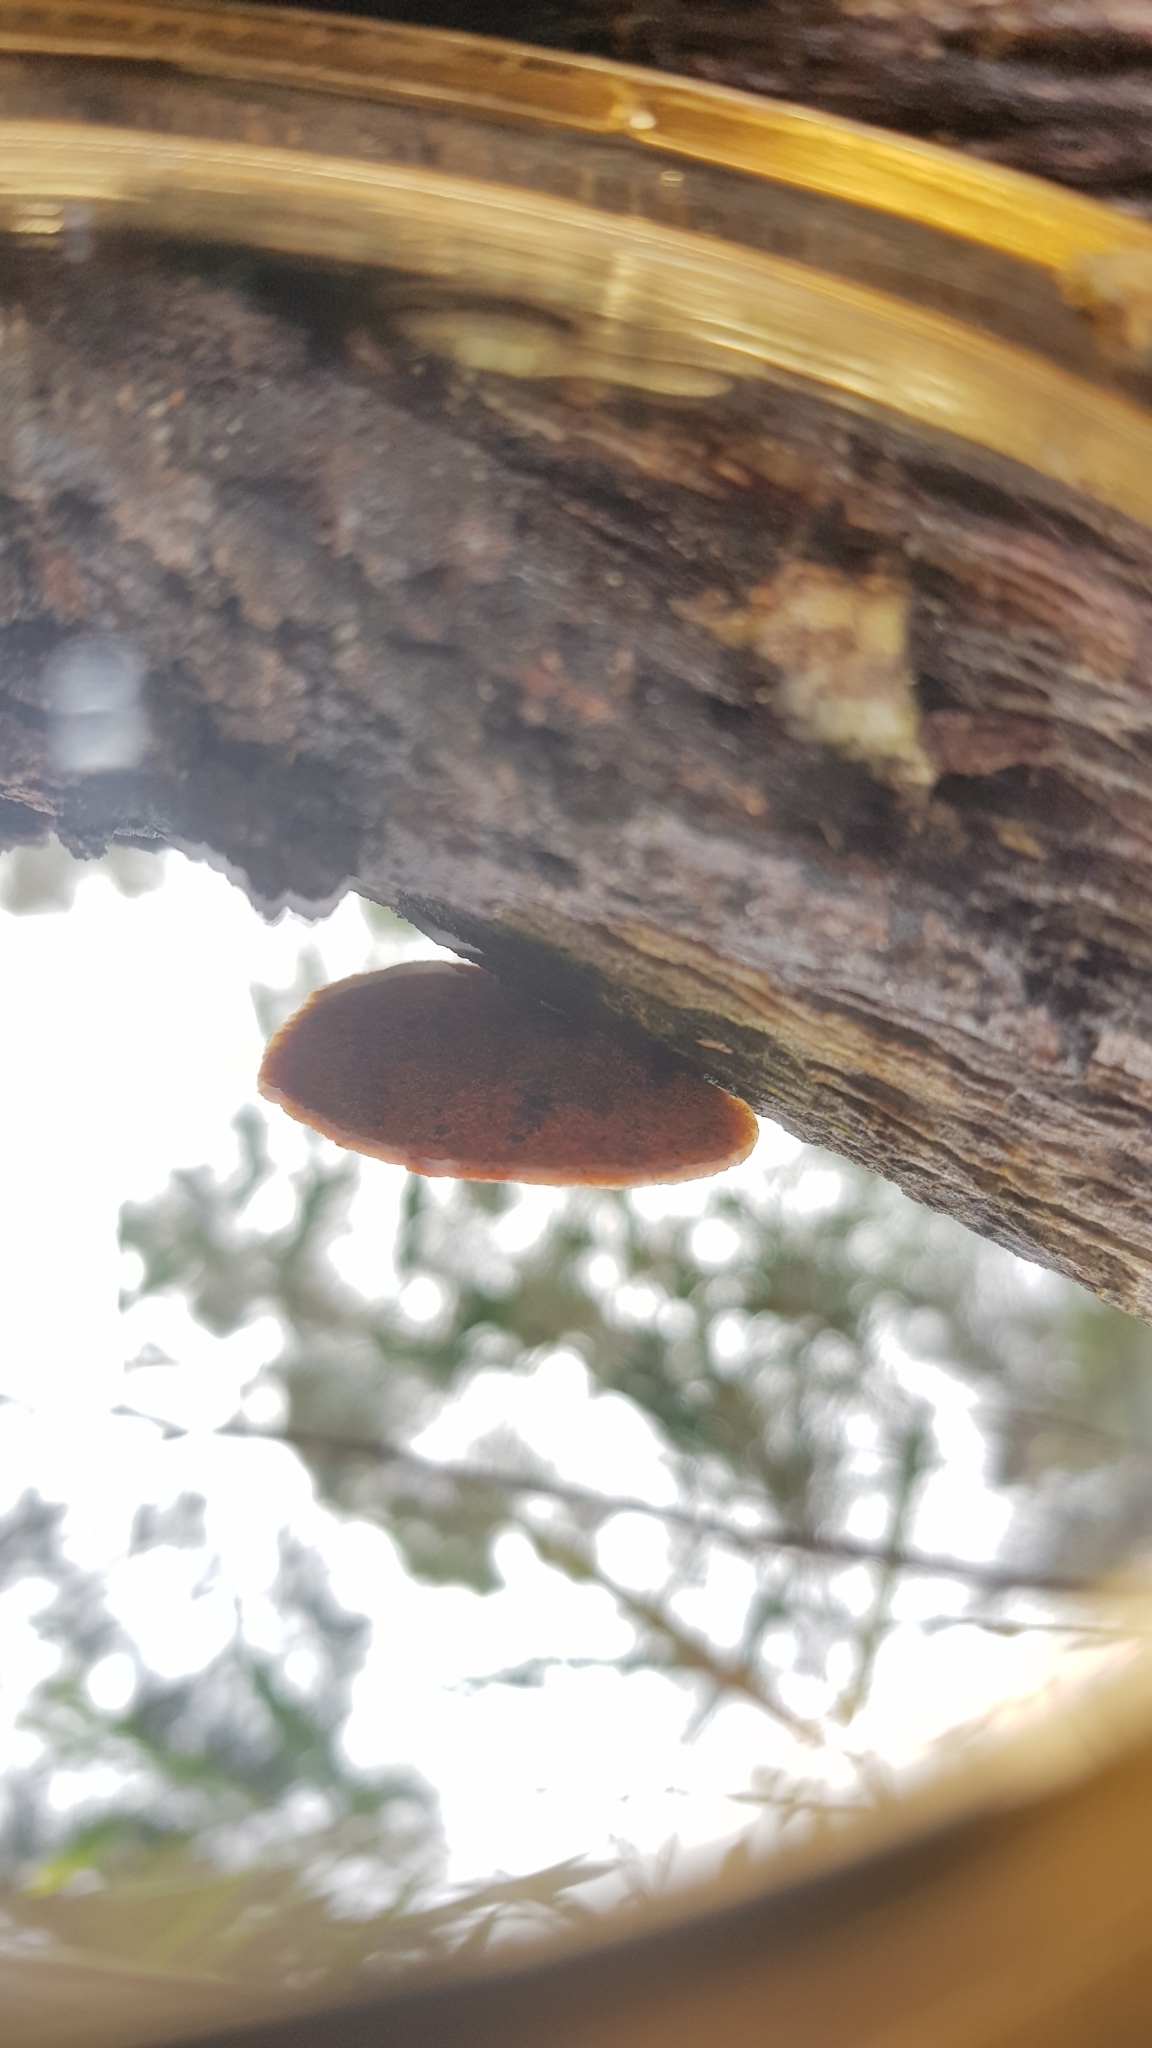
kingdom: Fungi
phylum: Basidiomycota
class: Agaricomycetes
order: Polyporales
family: Polyporaceae
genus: Trametes
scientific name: Trametes coccinea
